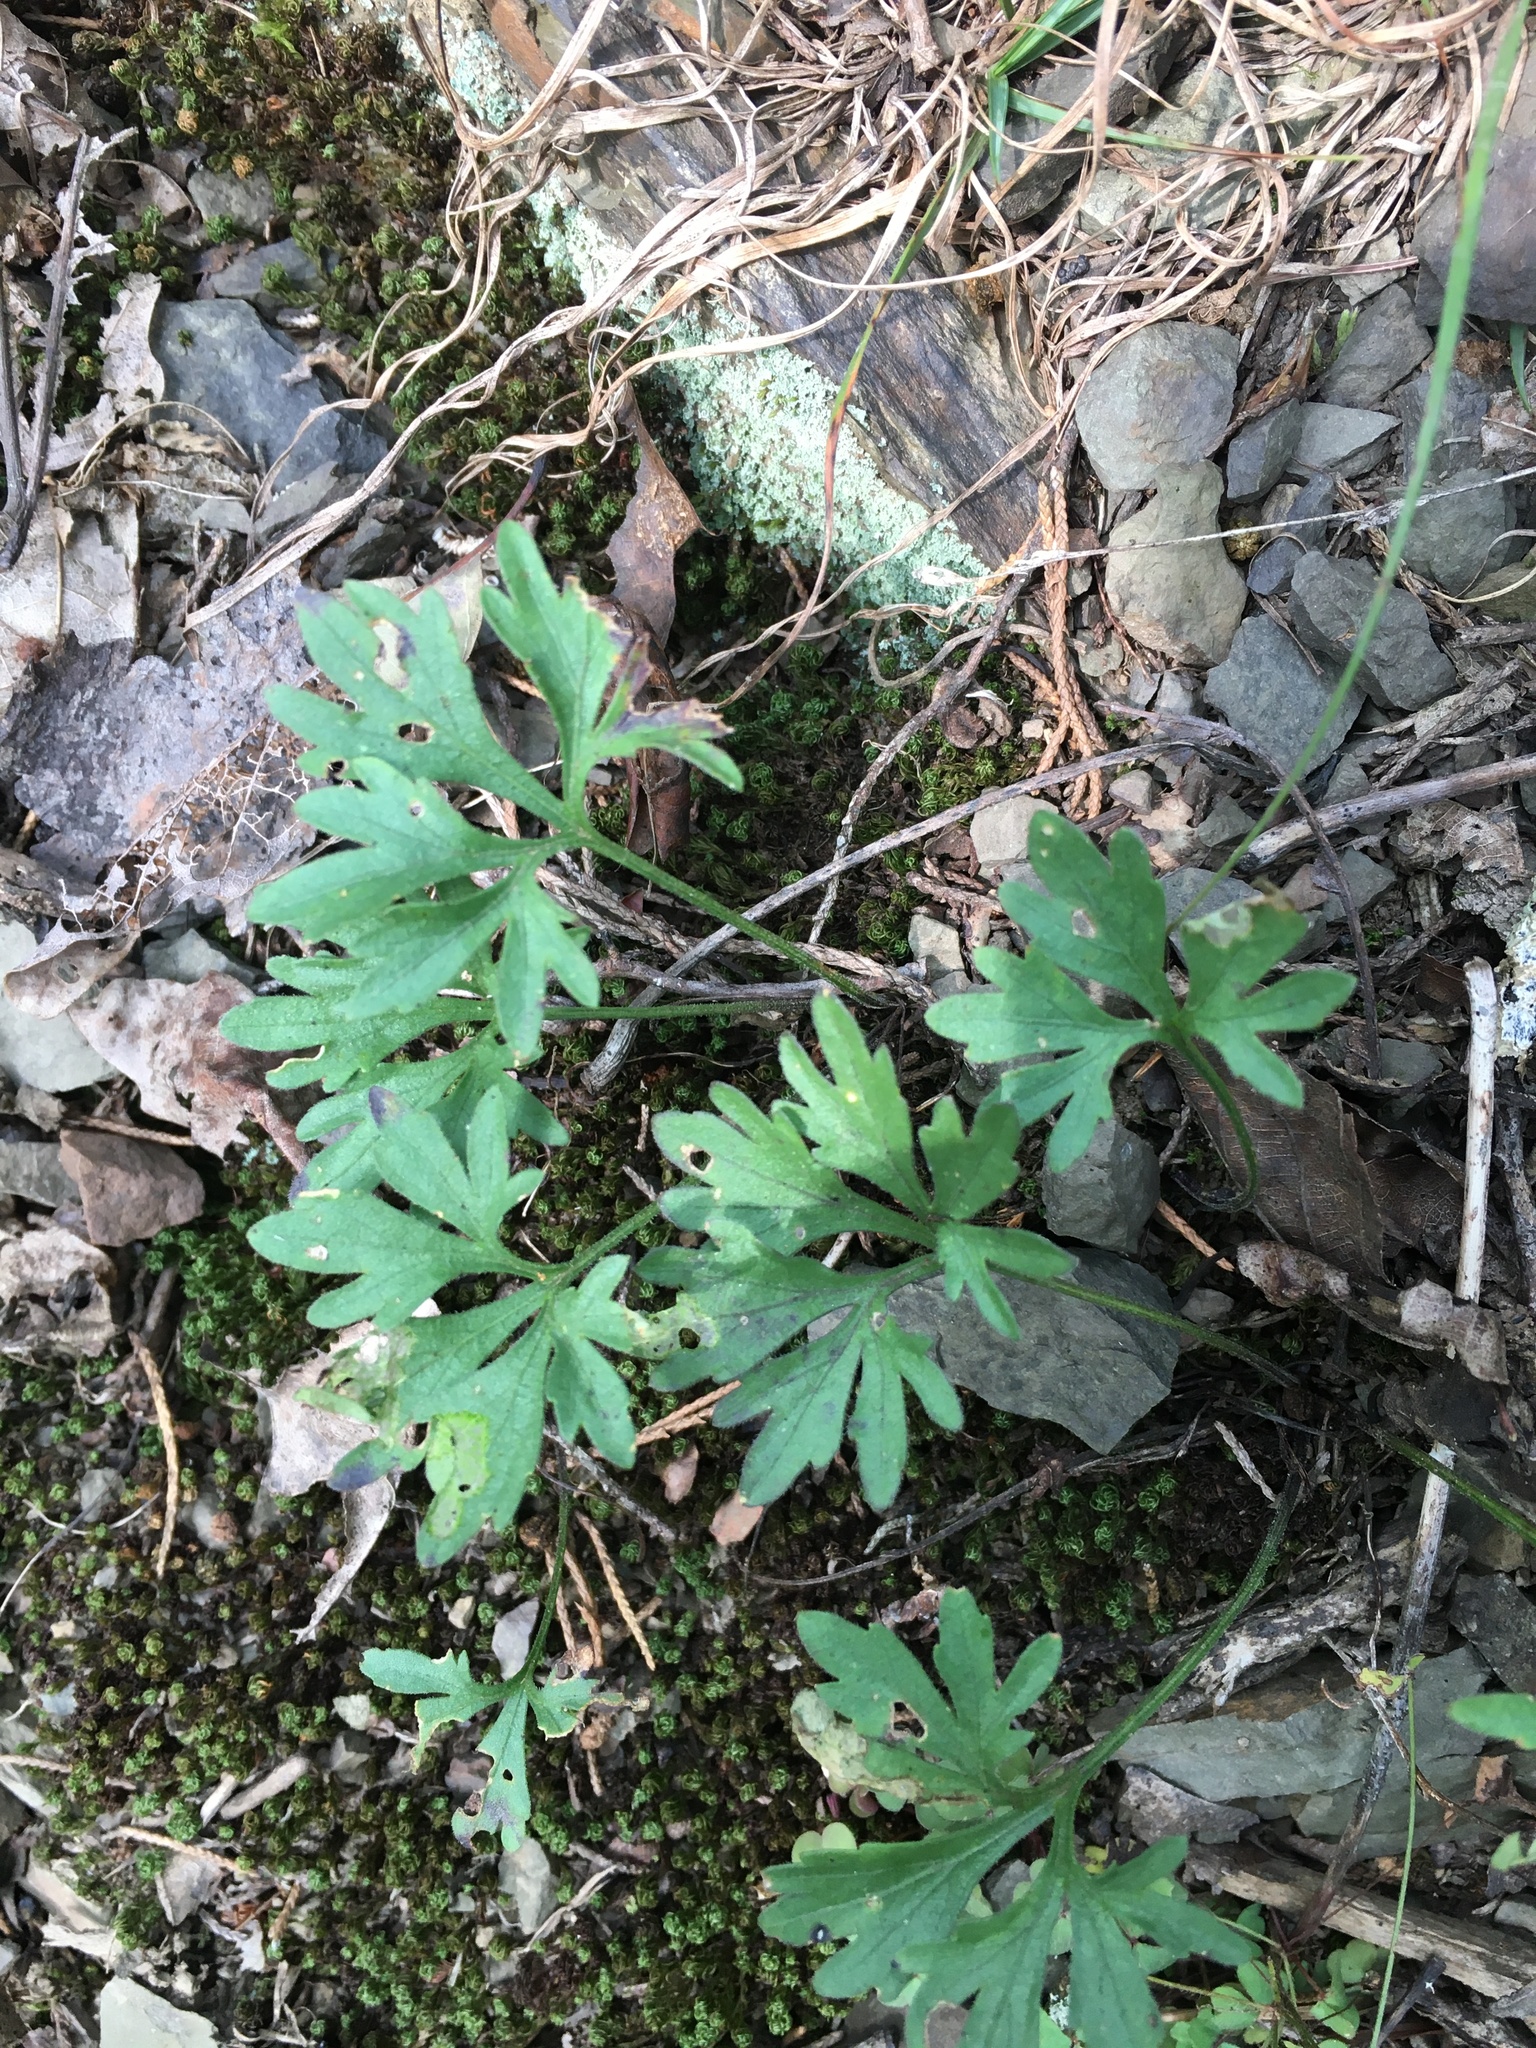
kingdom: Plantae
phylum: Tracheophyta
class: Magnoliopsida
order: Malpighiales
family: Violaceae
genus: Viola
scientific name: Viola pedata
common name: Pansy violet
